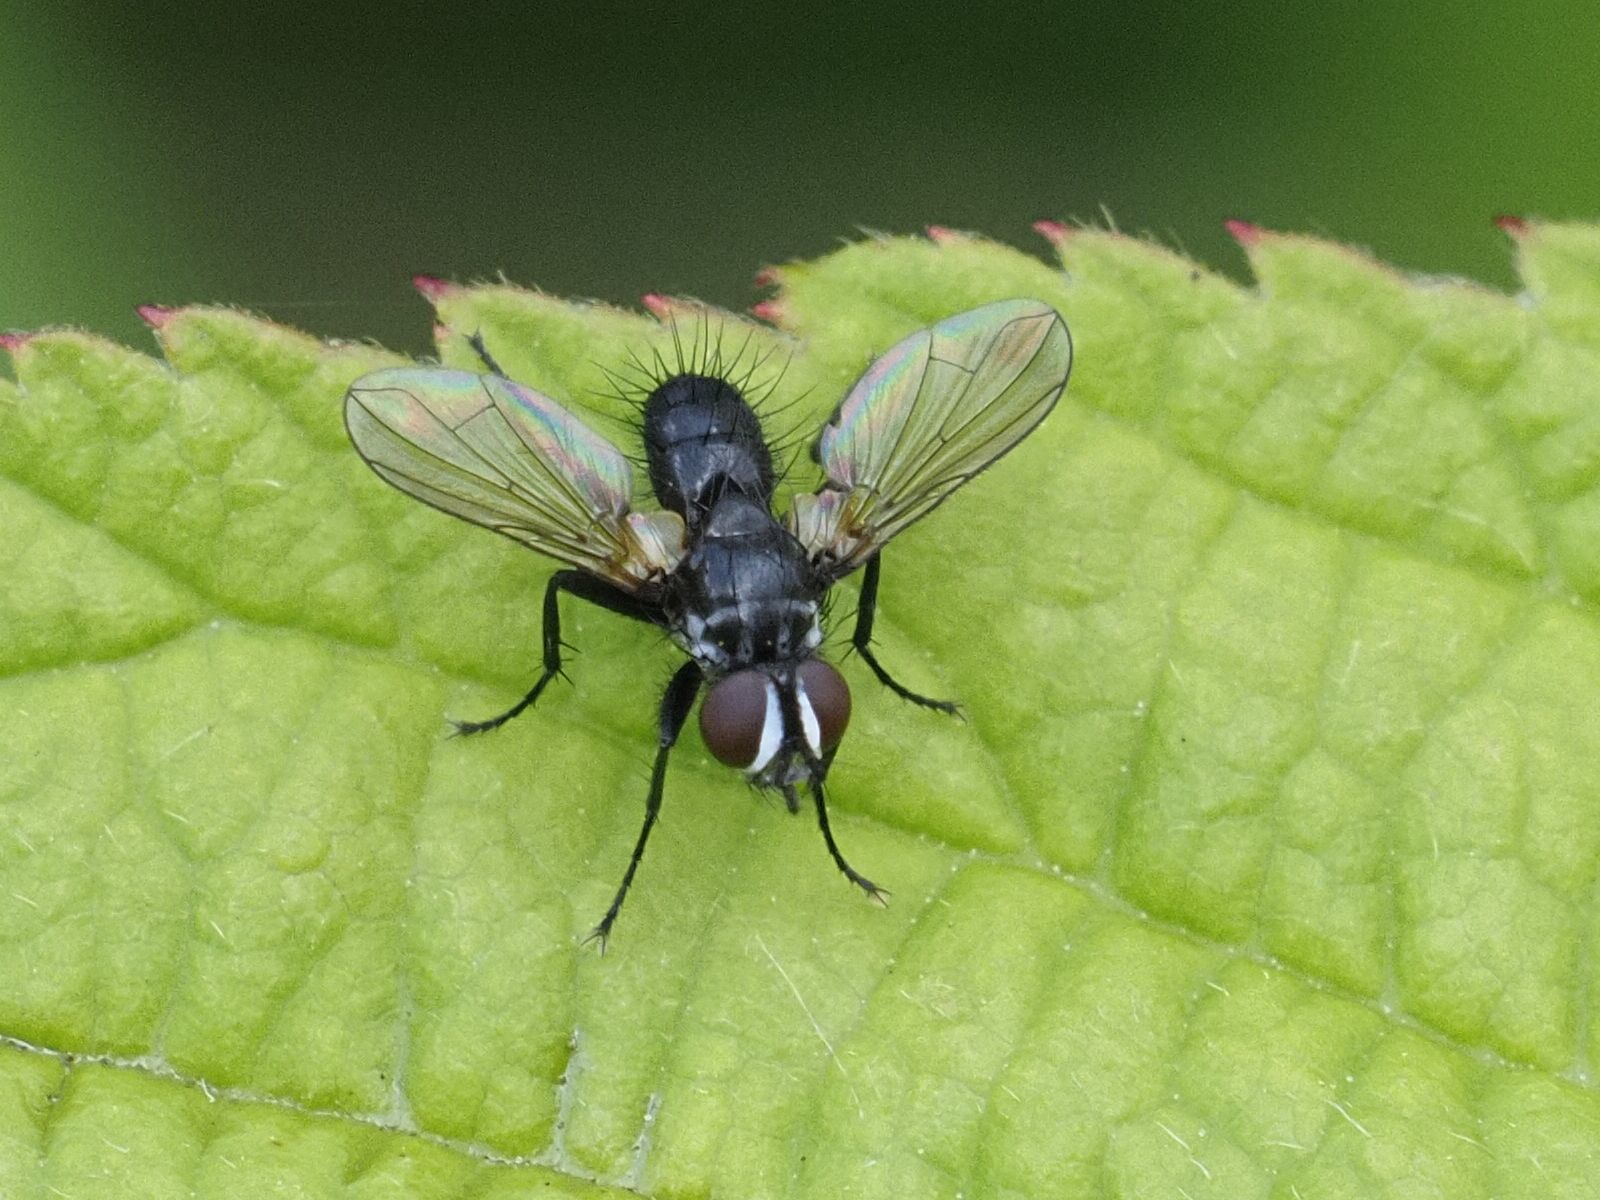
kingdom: Animalia
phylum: Arthropoda
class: Insecta
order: Diptera
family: Tachinidae
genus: Phania
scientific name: Phania funesta
